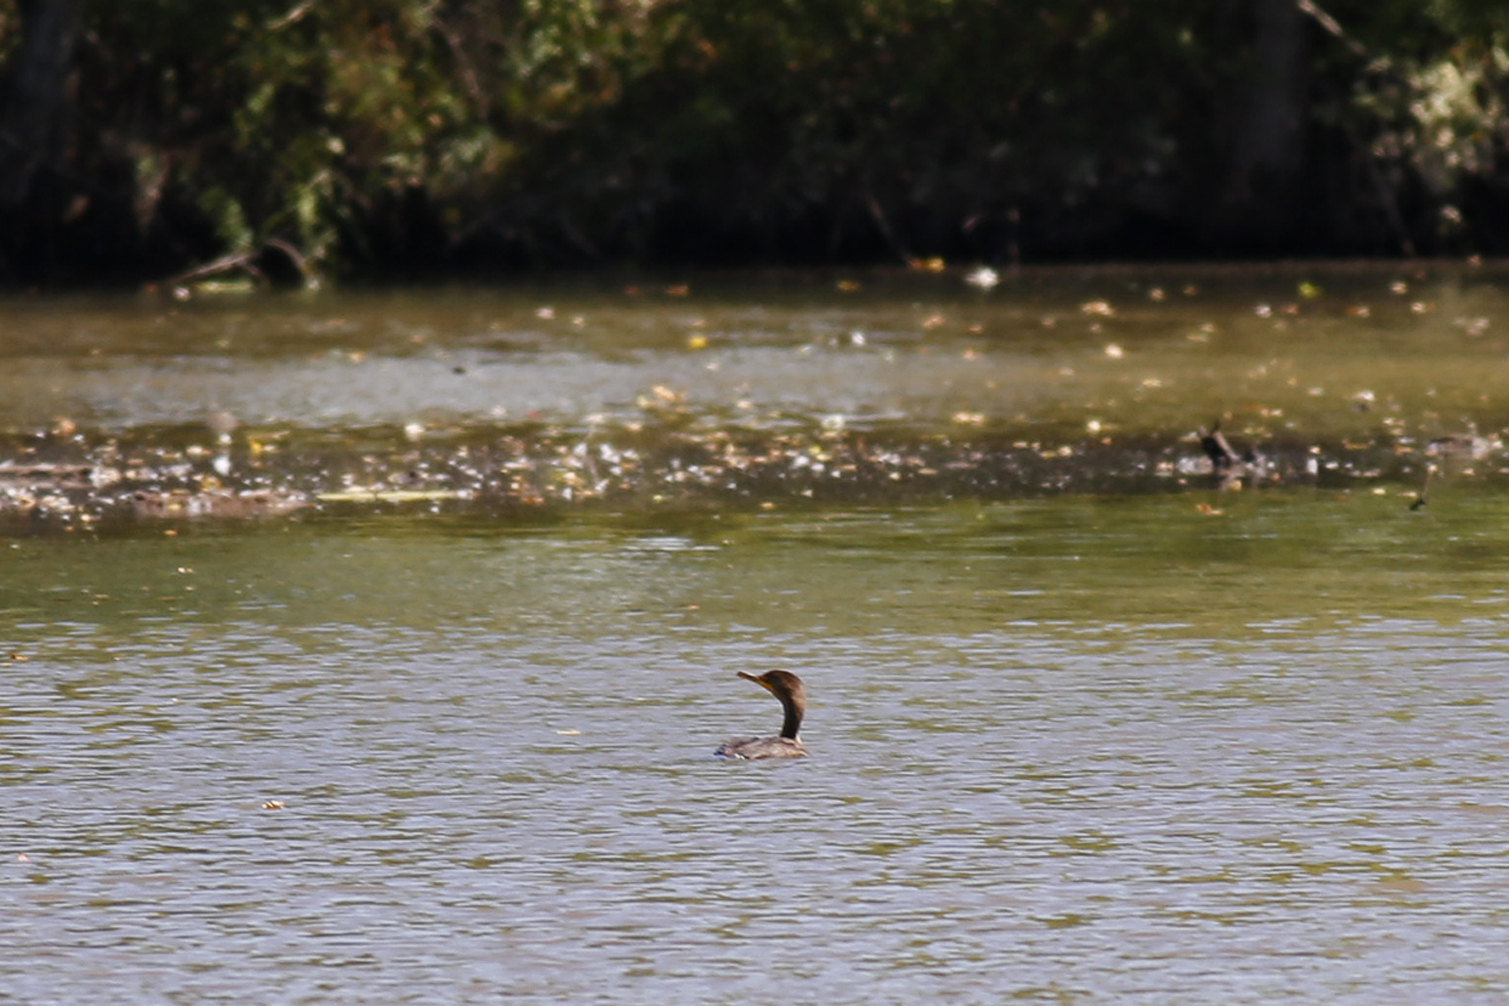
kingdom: Animalia
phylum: Chordata
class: Aves
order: Suliformes
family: Phalacrocoracidae
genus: Phalacrocorax
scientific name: Phalacrocorax auritus
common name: Double-crested cormorant
